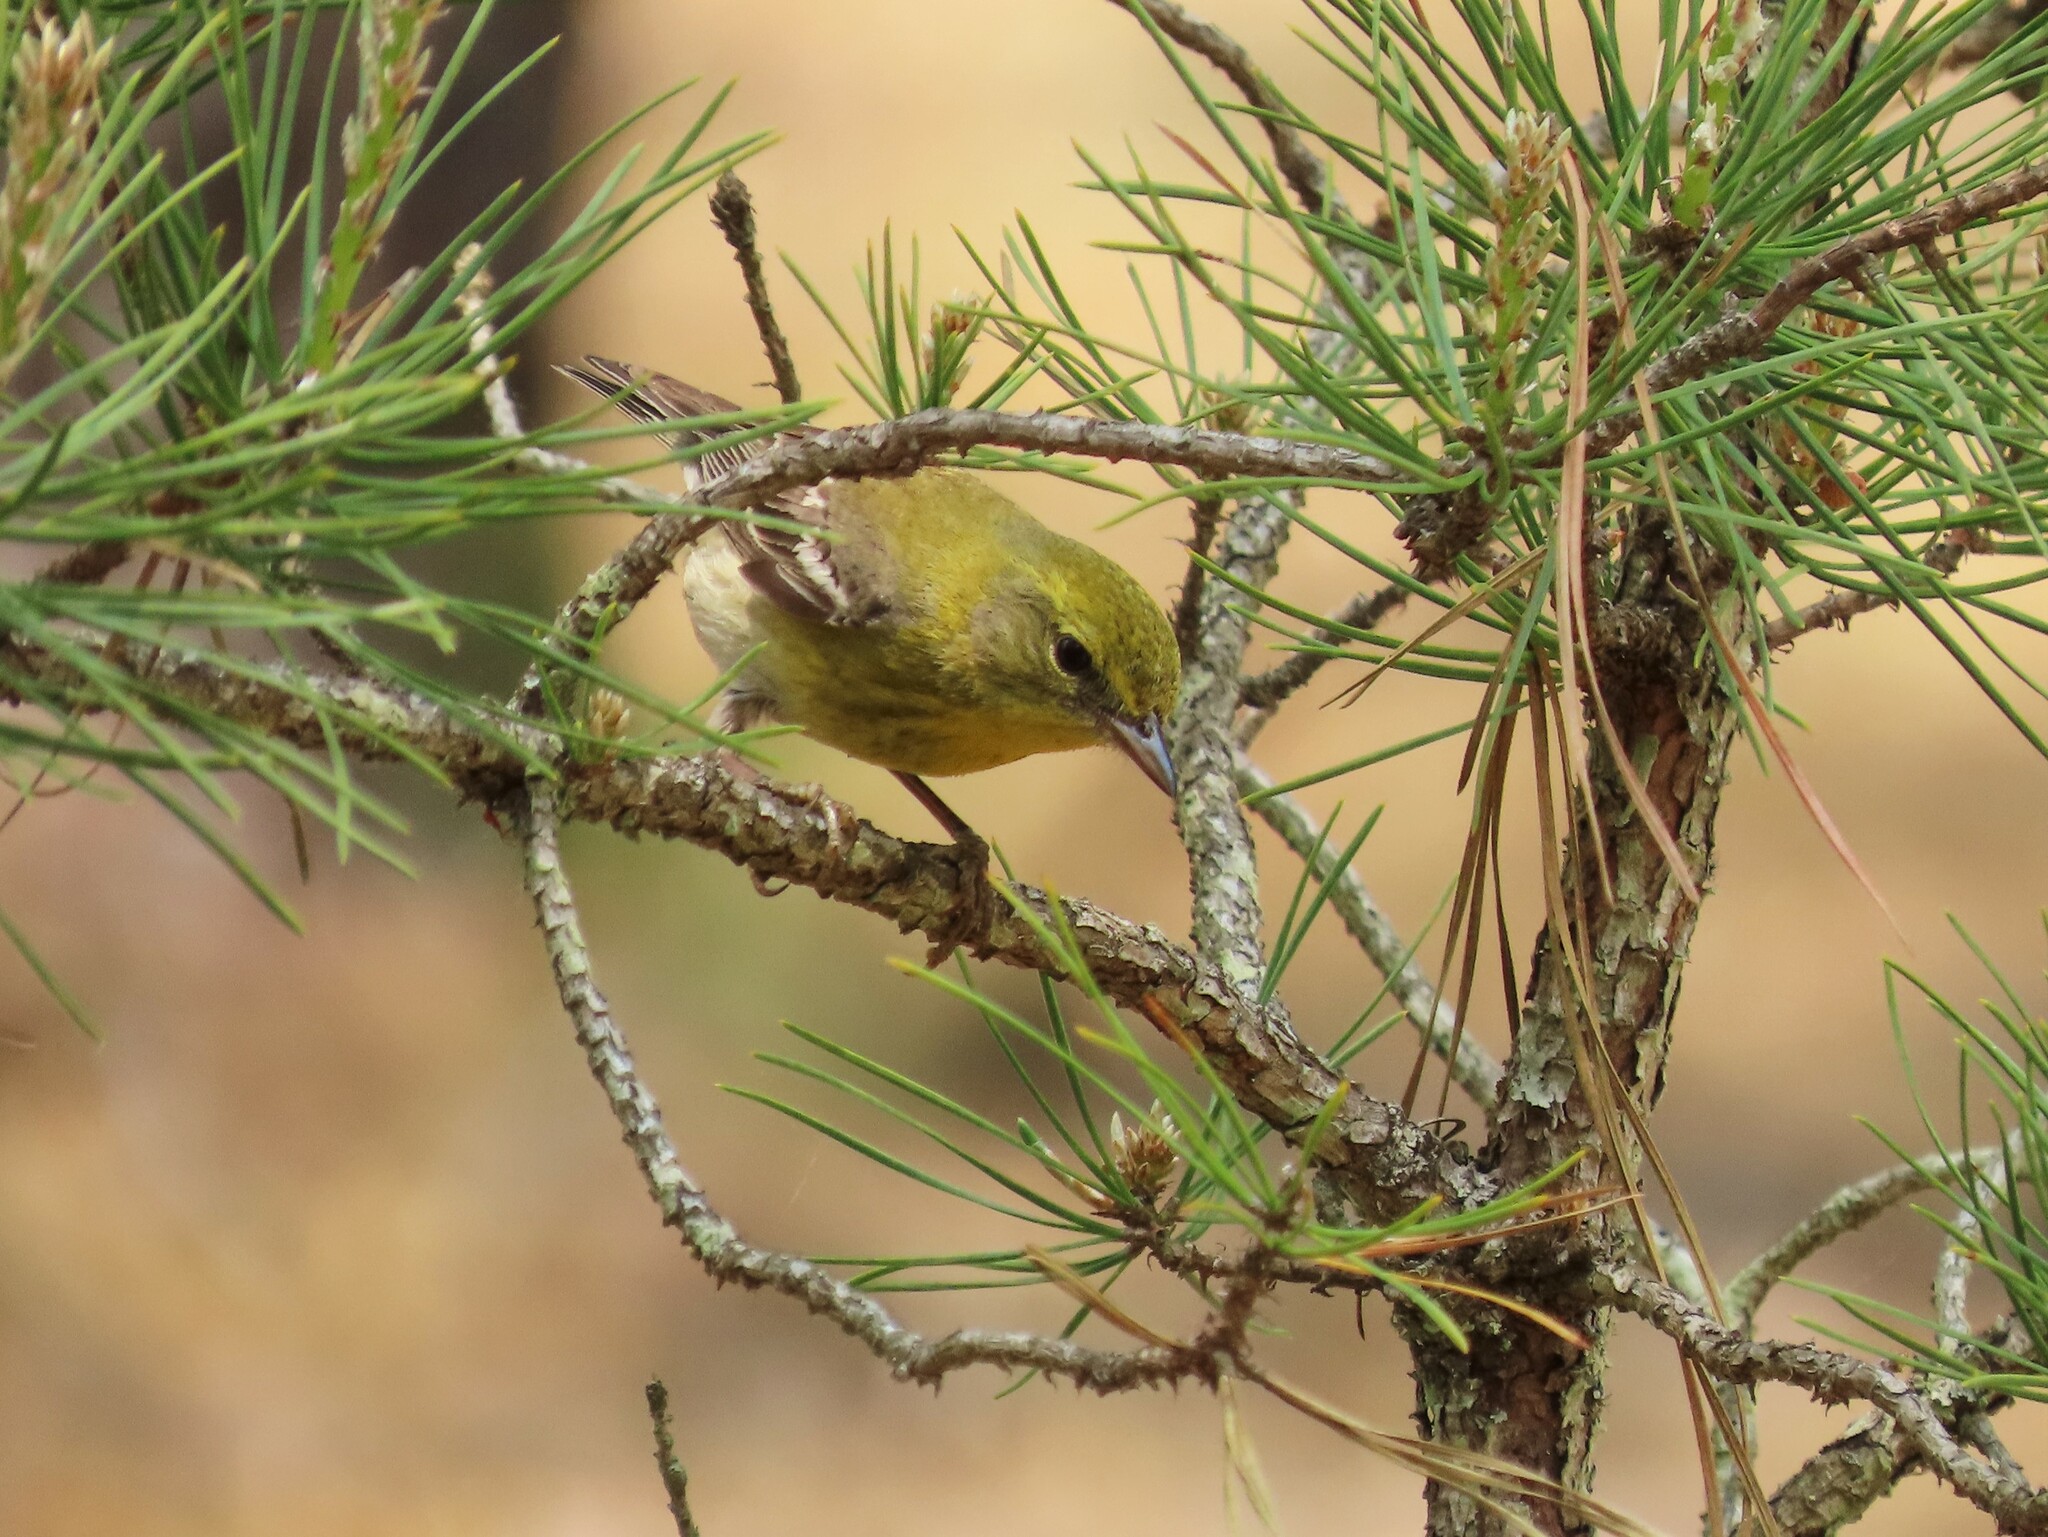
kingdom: Animalia
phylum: Chordata
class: Aves
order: Passeriformes
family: Parulidae
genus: Setophaga
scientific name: Setophaga pinus
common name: Pine warbler
